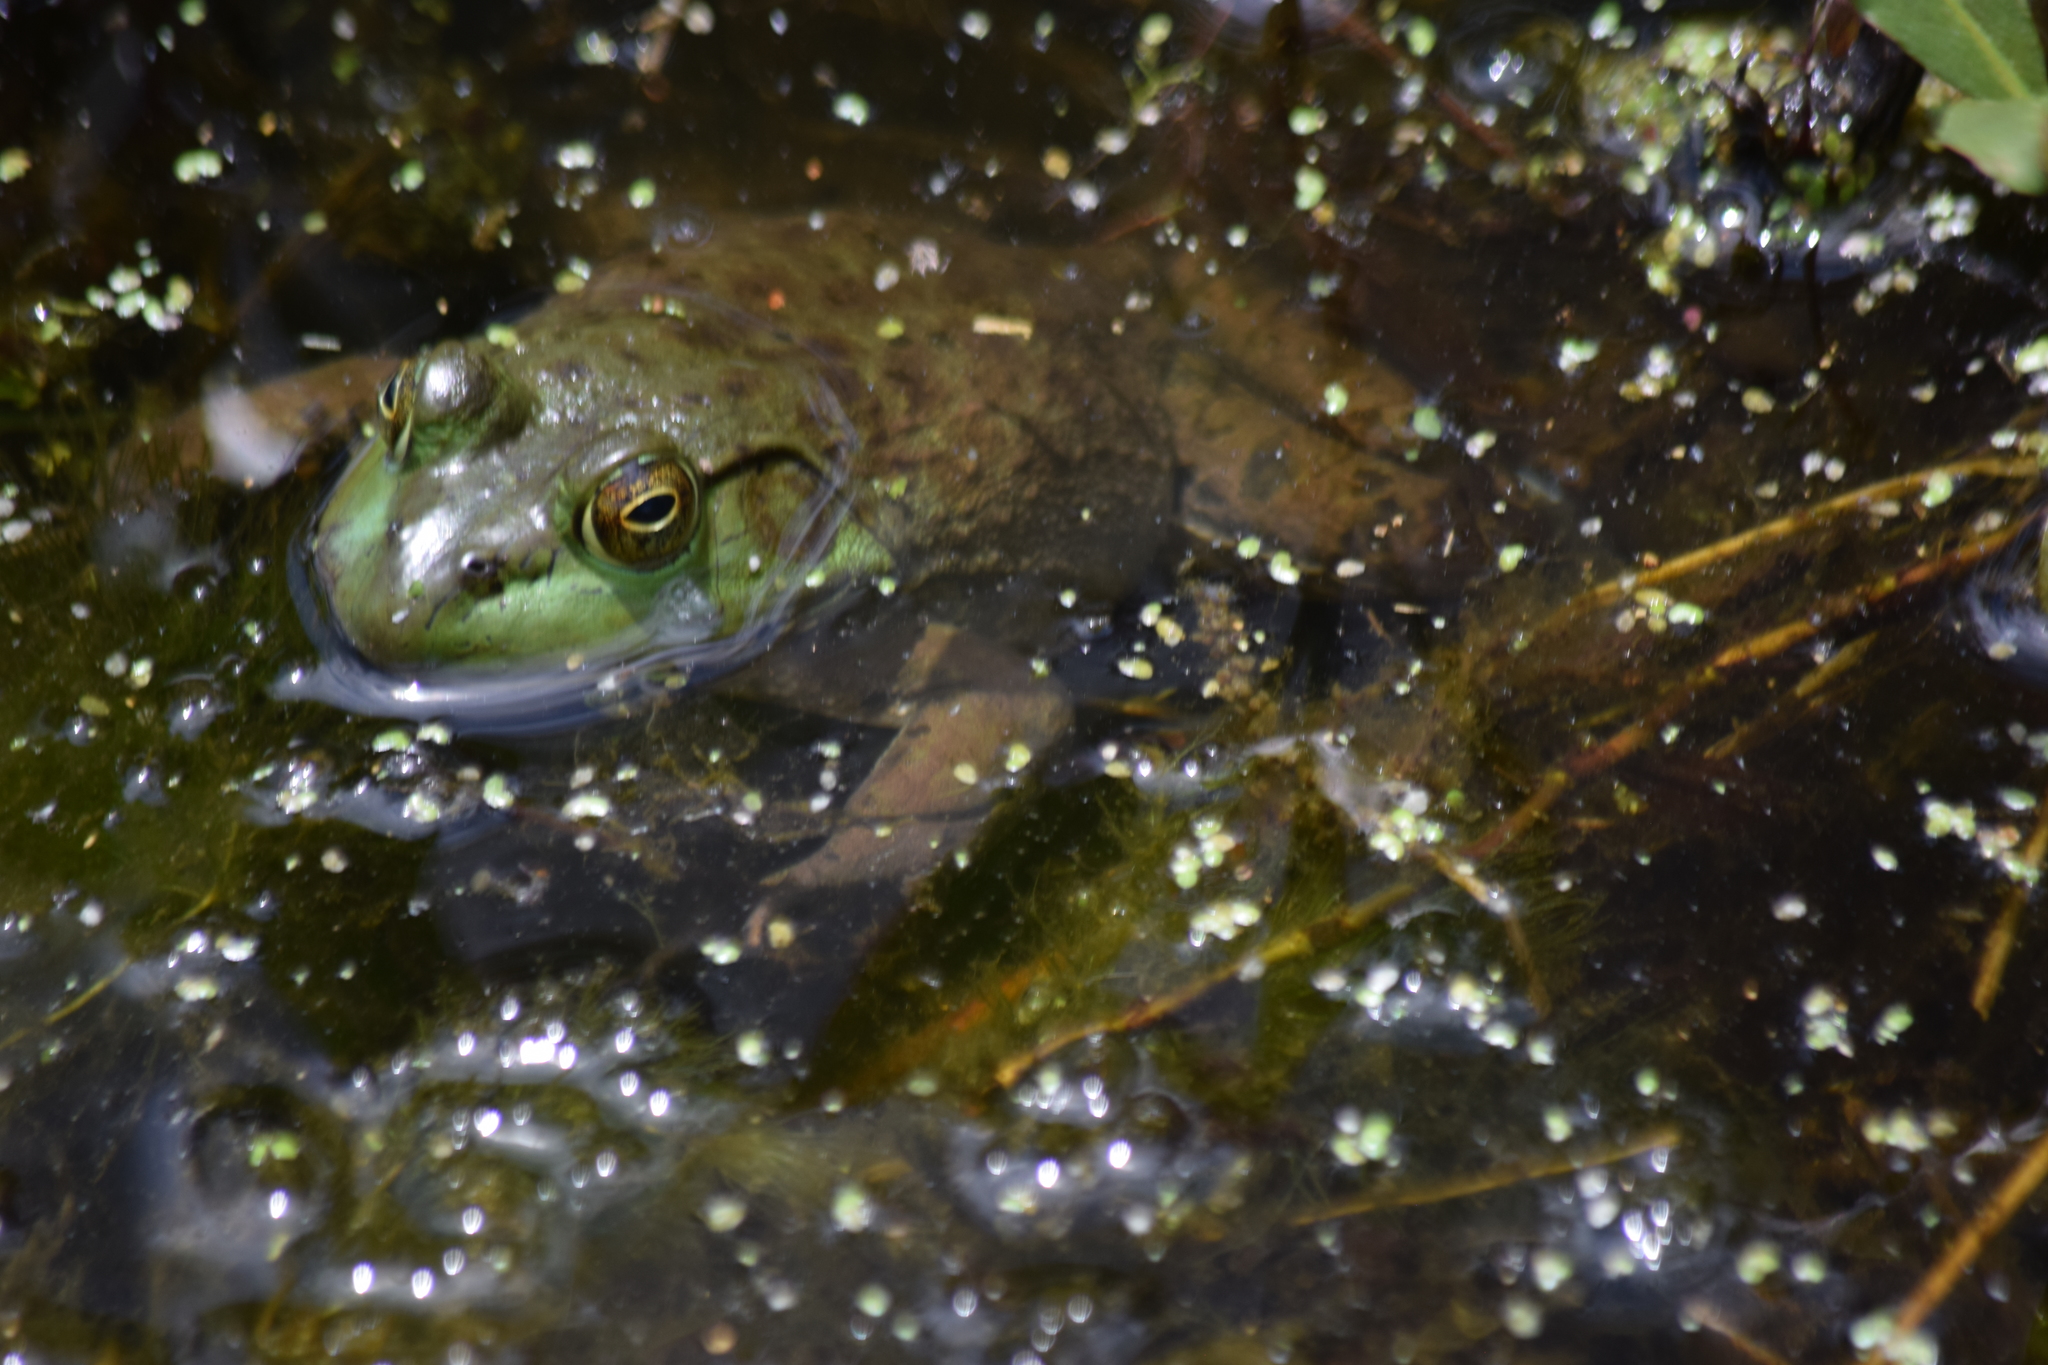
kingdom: Animalia
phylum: Chordata
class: Amphibia
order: Anura
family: Ranidae
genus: Lithobates
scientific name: Lithobates catesbeianus
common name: American bullfrog
